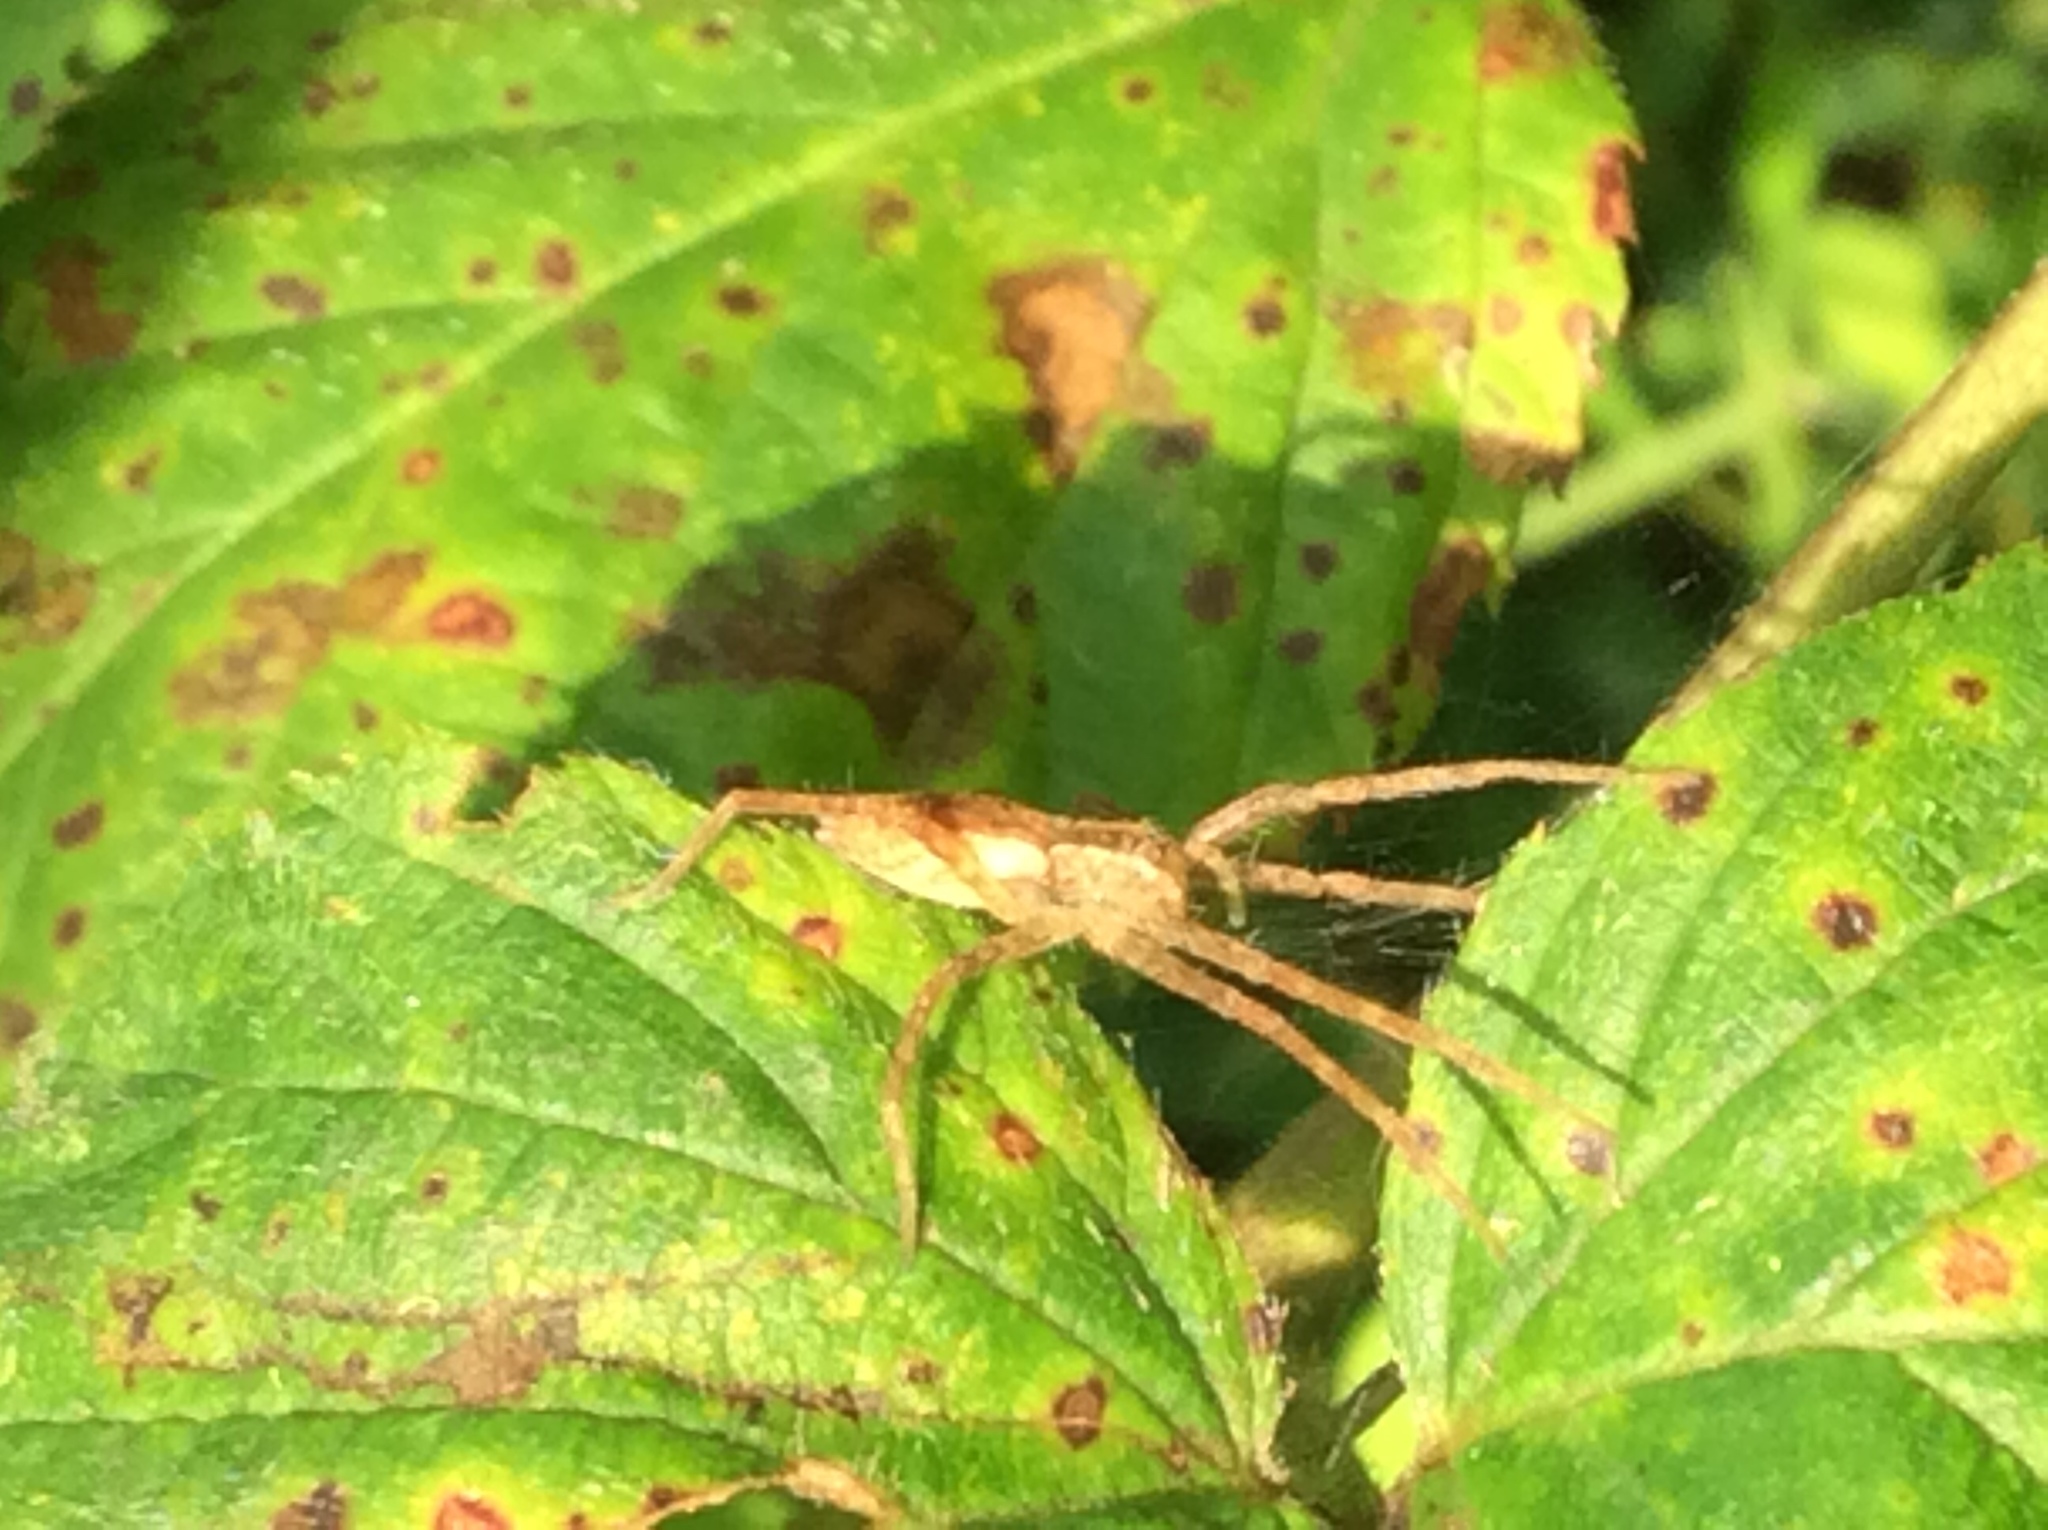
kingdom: Animalia
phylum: Arthropoda
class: Arachnida
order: Araneae
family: Pisauridae
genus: Pisaurina
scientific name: Pisaurina mira
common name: American nursery web spider
